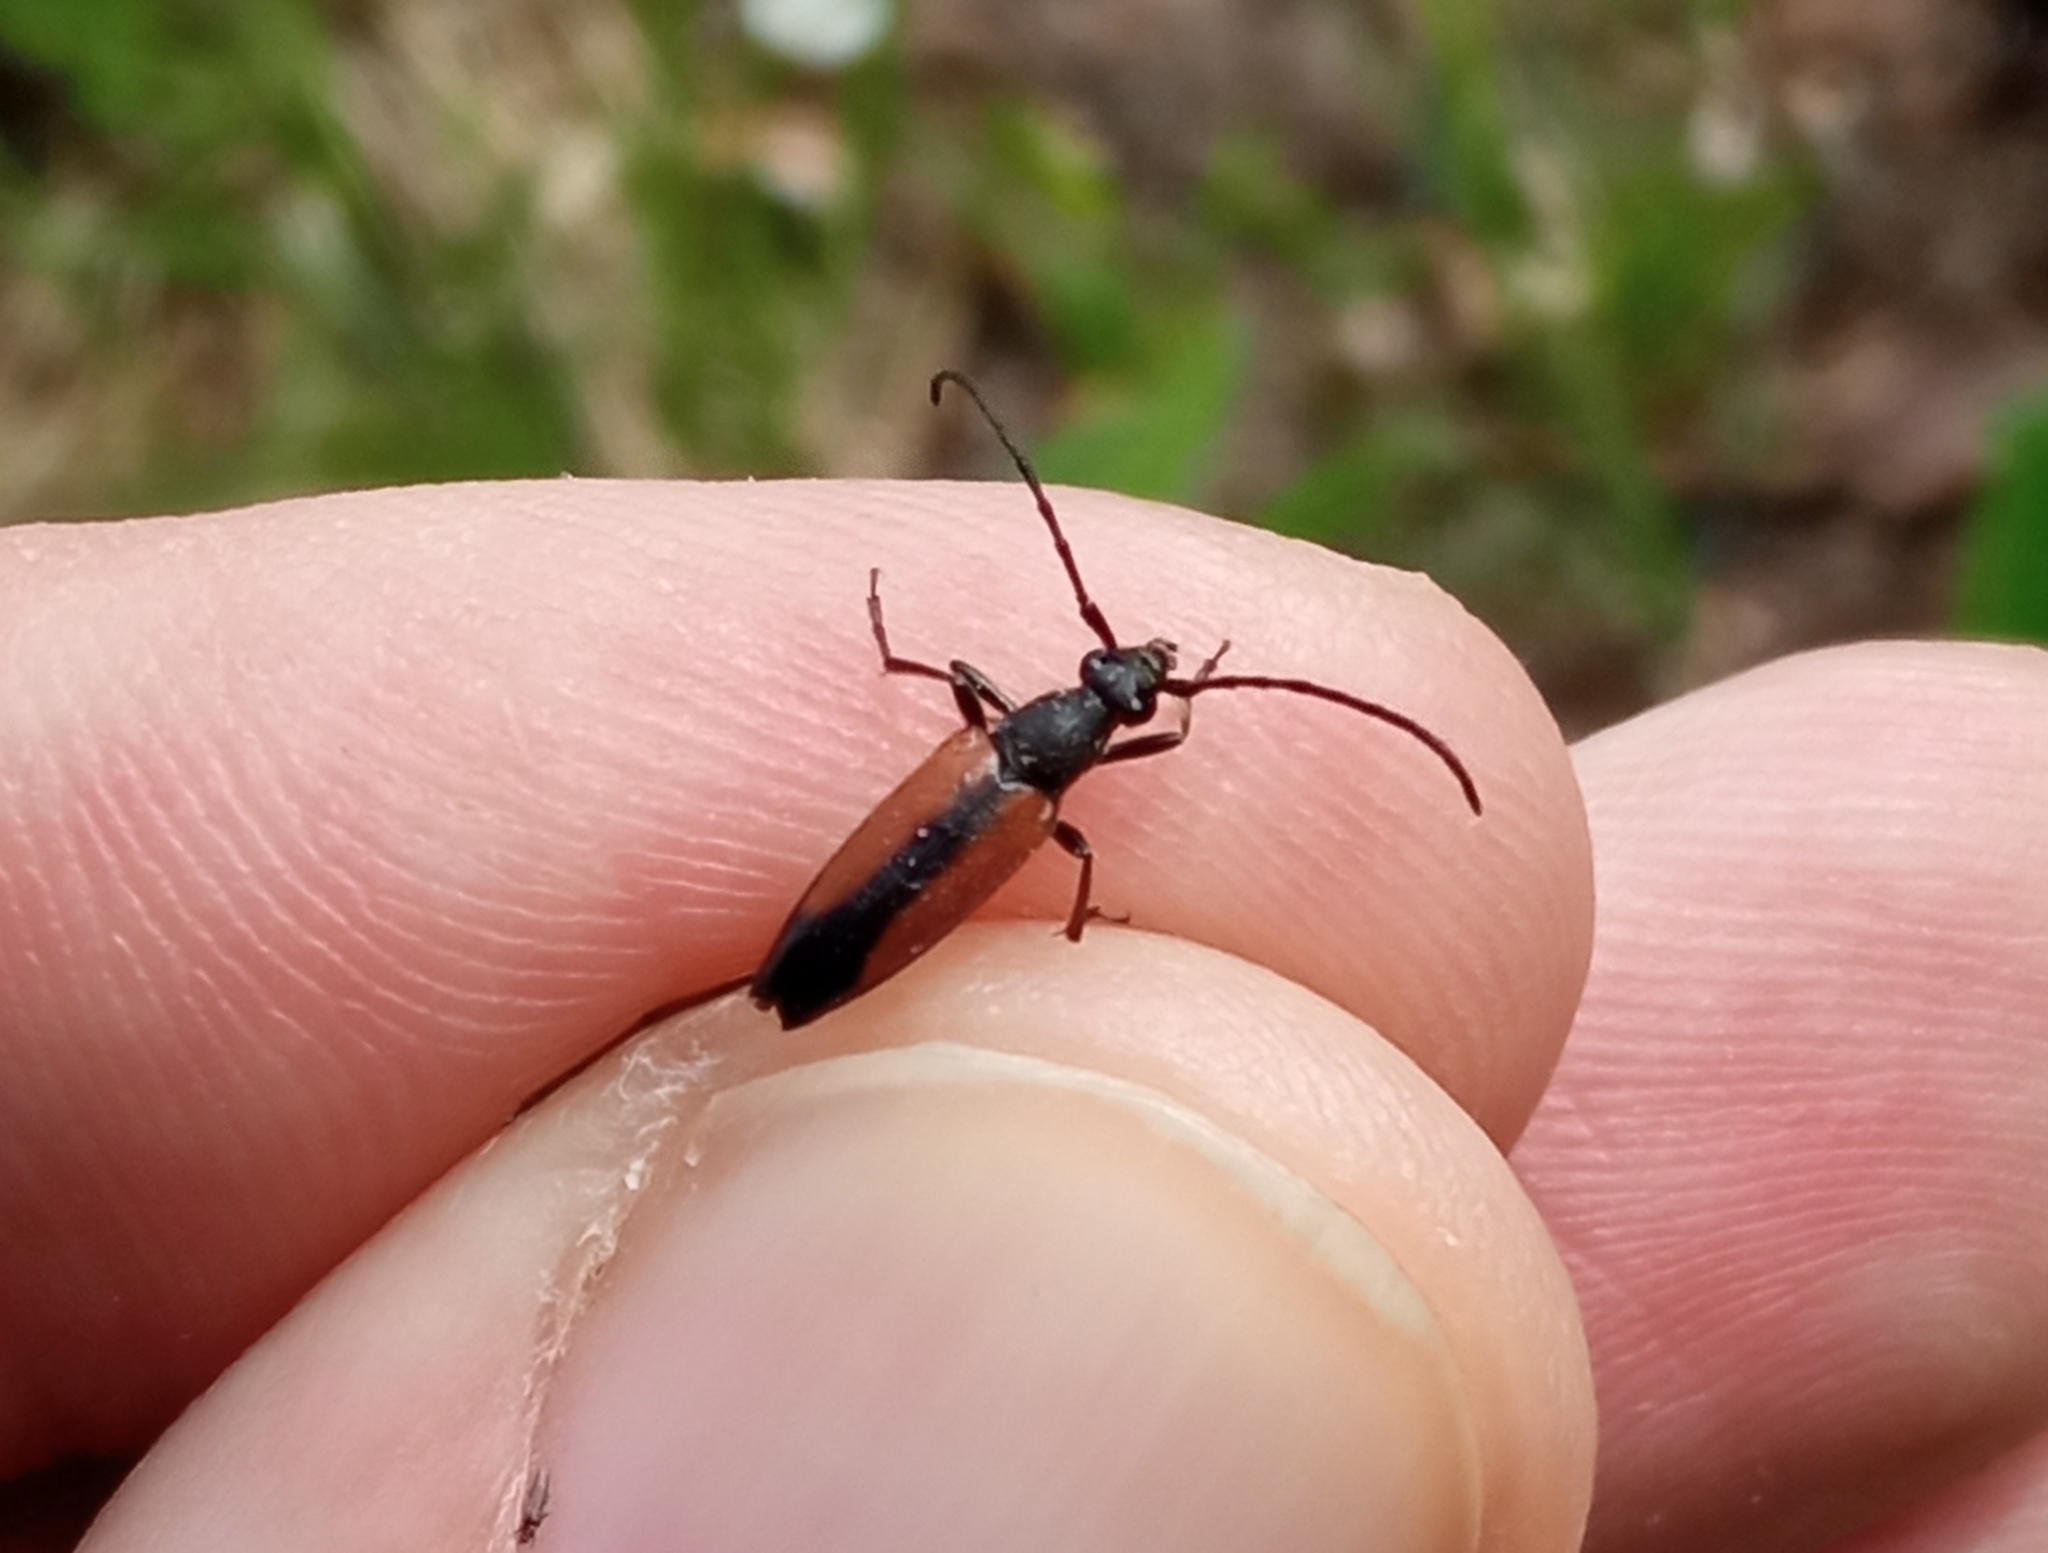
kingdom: Animalia
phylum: Arthropoda
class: Insecta
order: Coleoptera
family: Cerambycidae
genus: Stenurella
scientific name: Stenurella melanura
